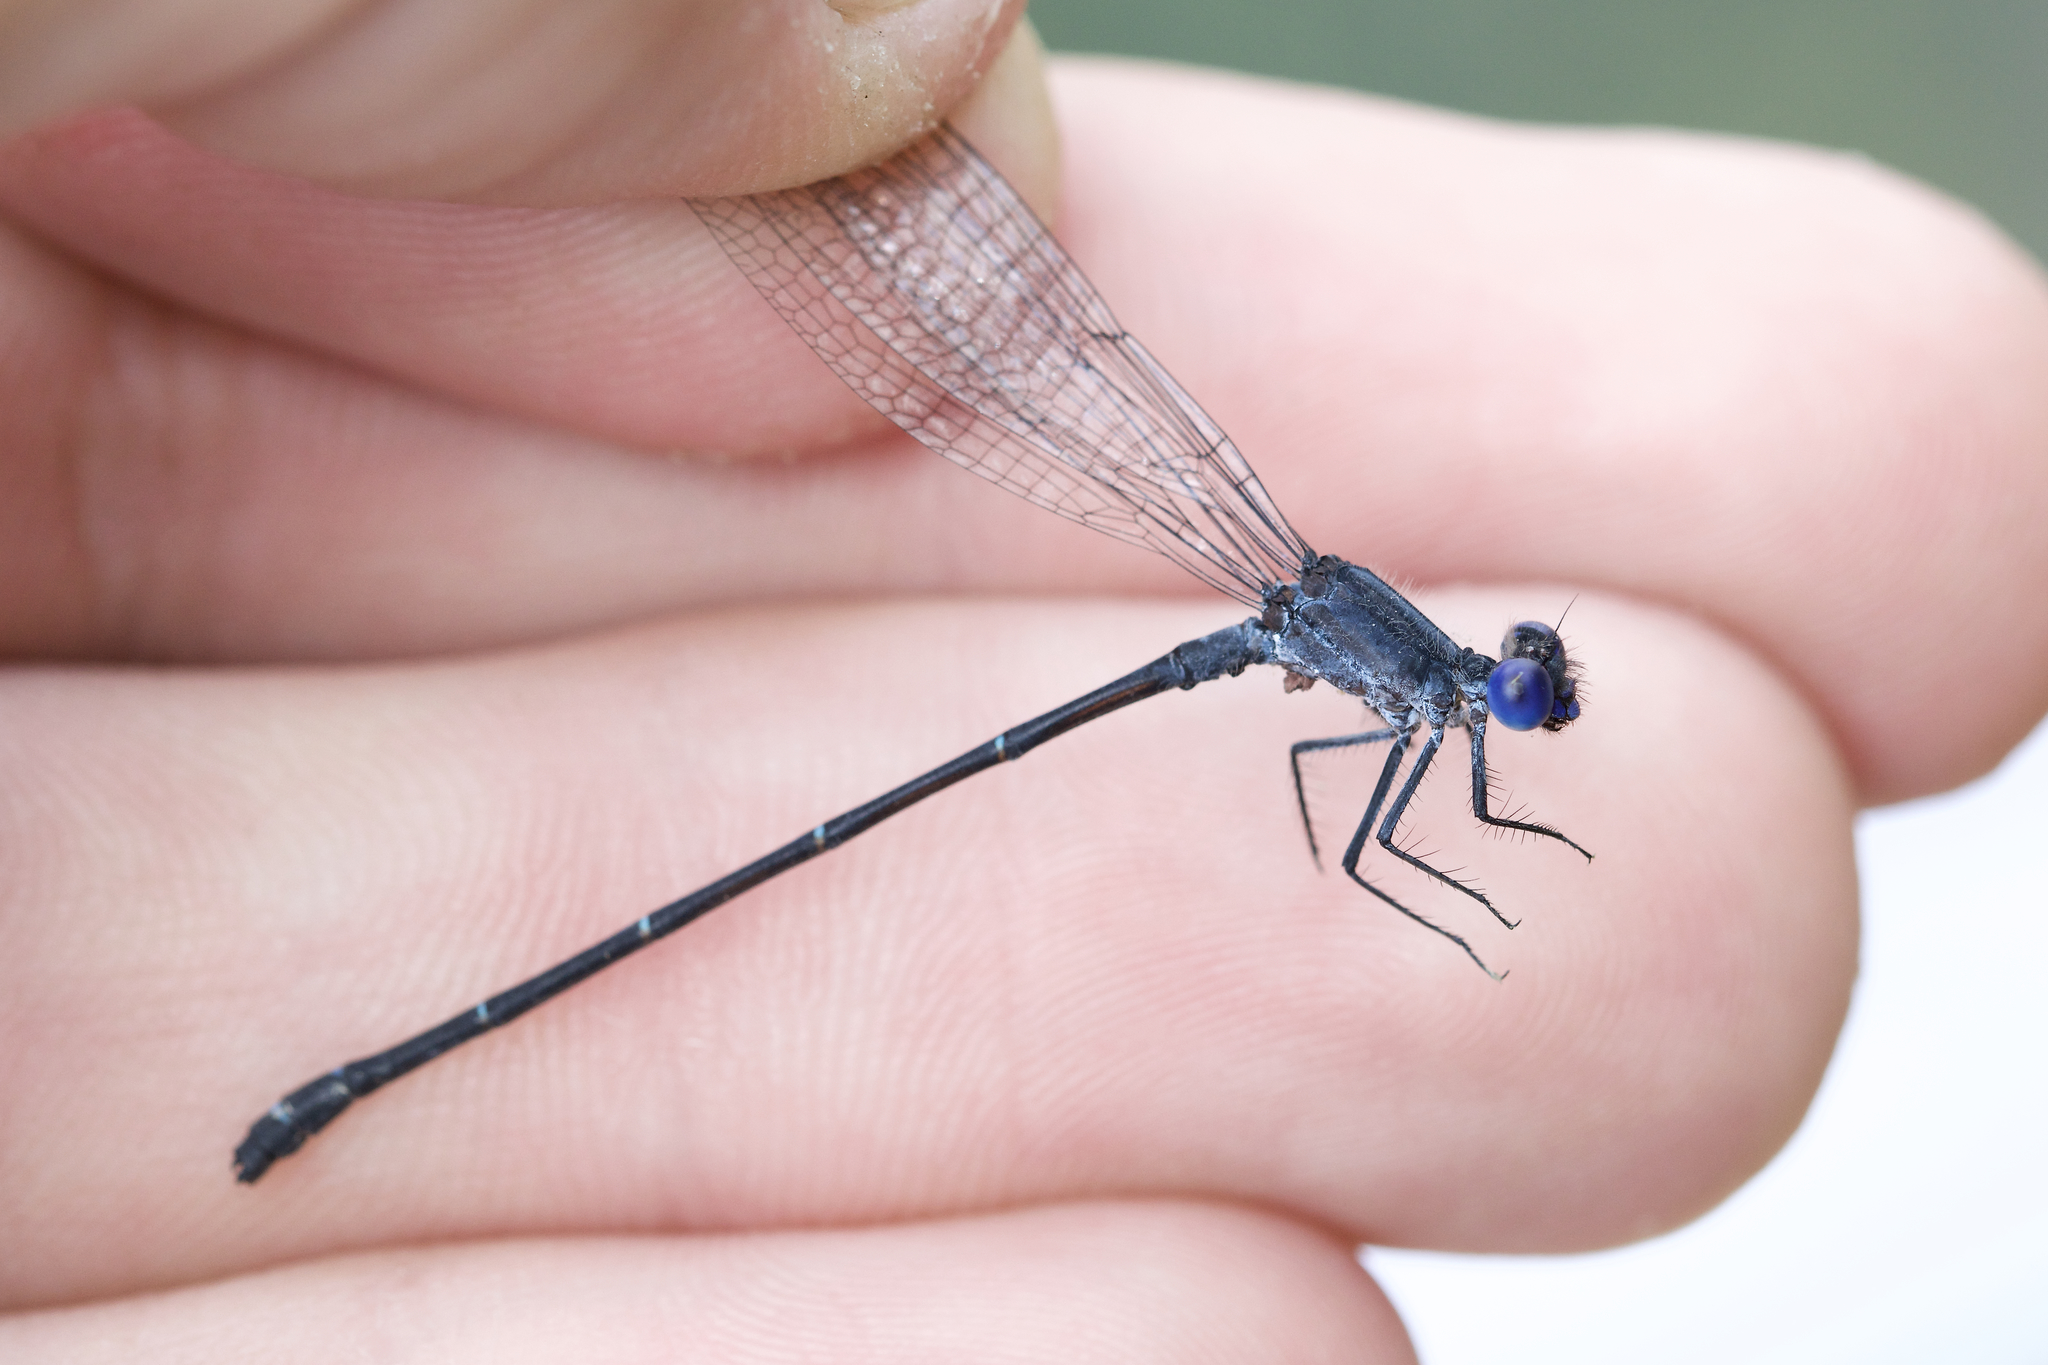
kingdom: Animalia
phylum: Arthropoda
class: Insecta
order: Odonata
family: Coenagrionidae
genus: Argia
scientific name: Argia translata
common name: Dusky dancer
